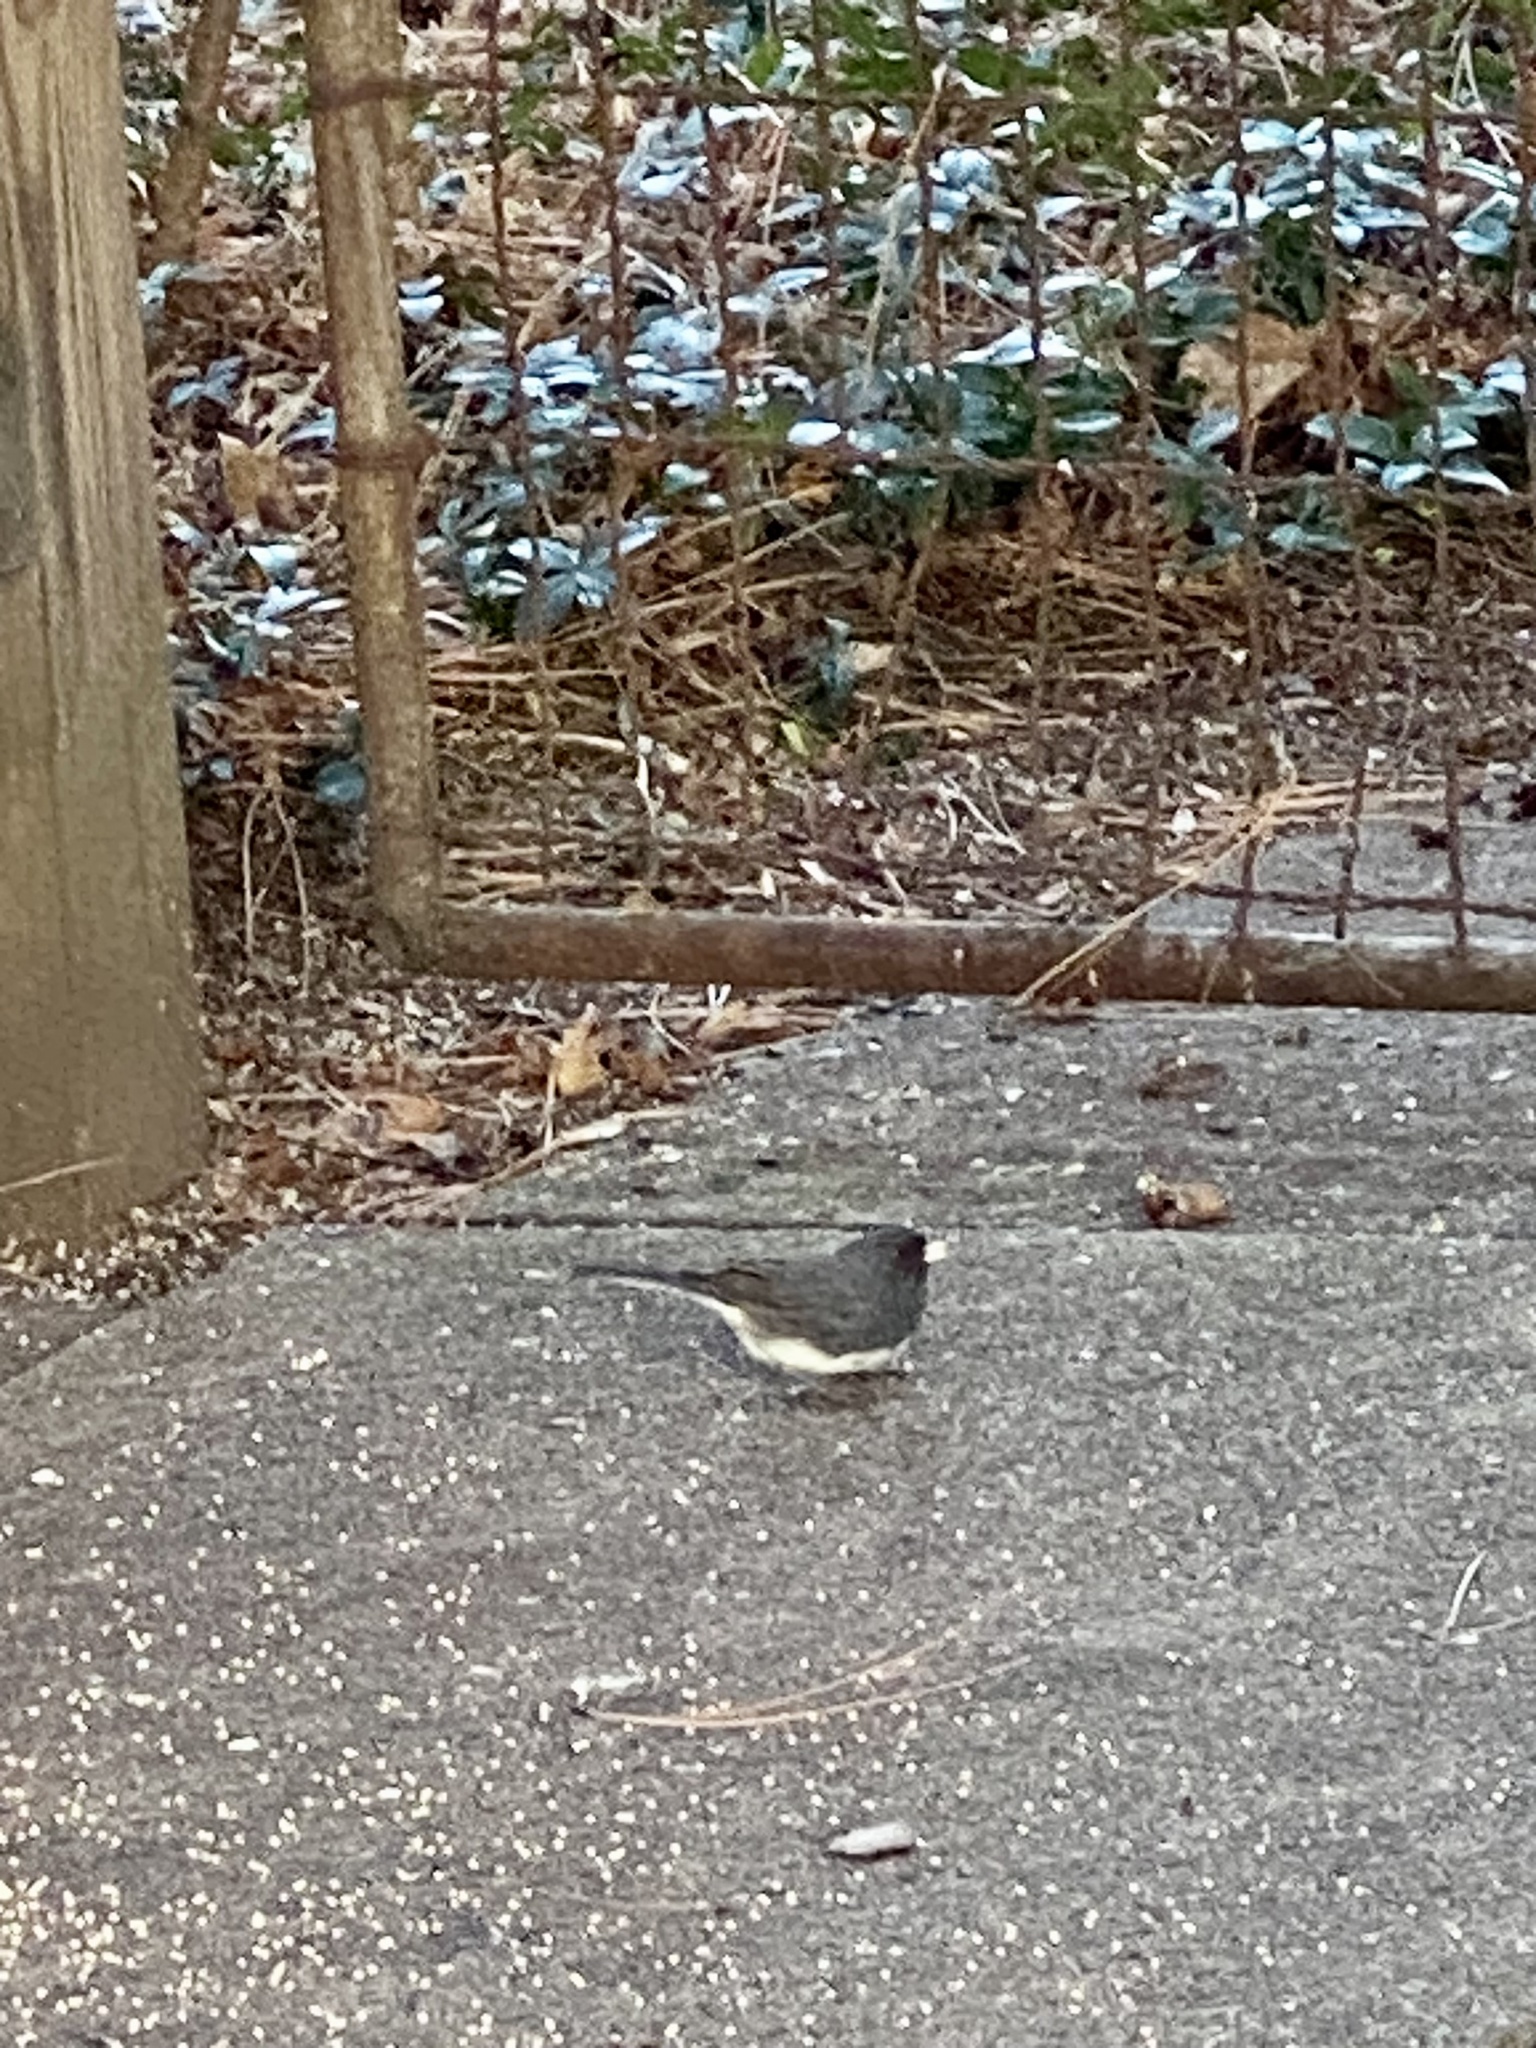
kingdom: Animalia
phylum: Chordata
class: Aves
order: Passeriformes
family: Passerellidae
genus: Junco
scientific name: Junco hyemalis
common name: Dark-eyed junco
